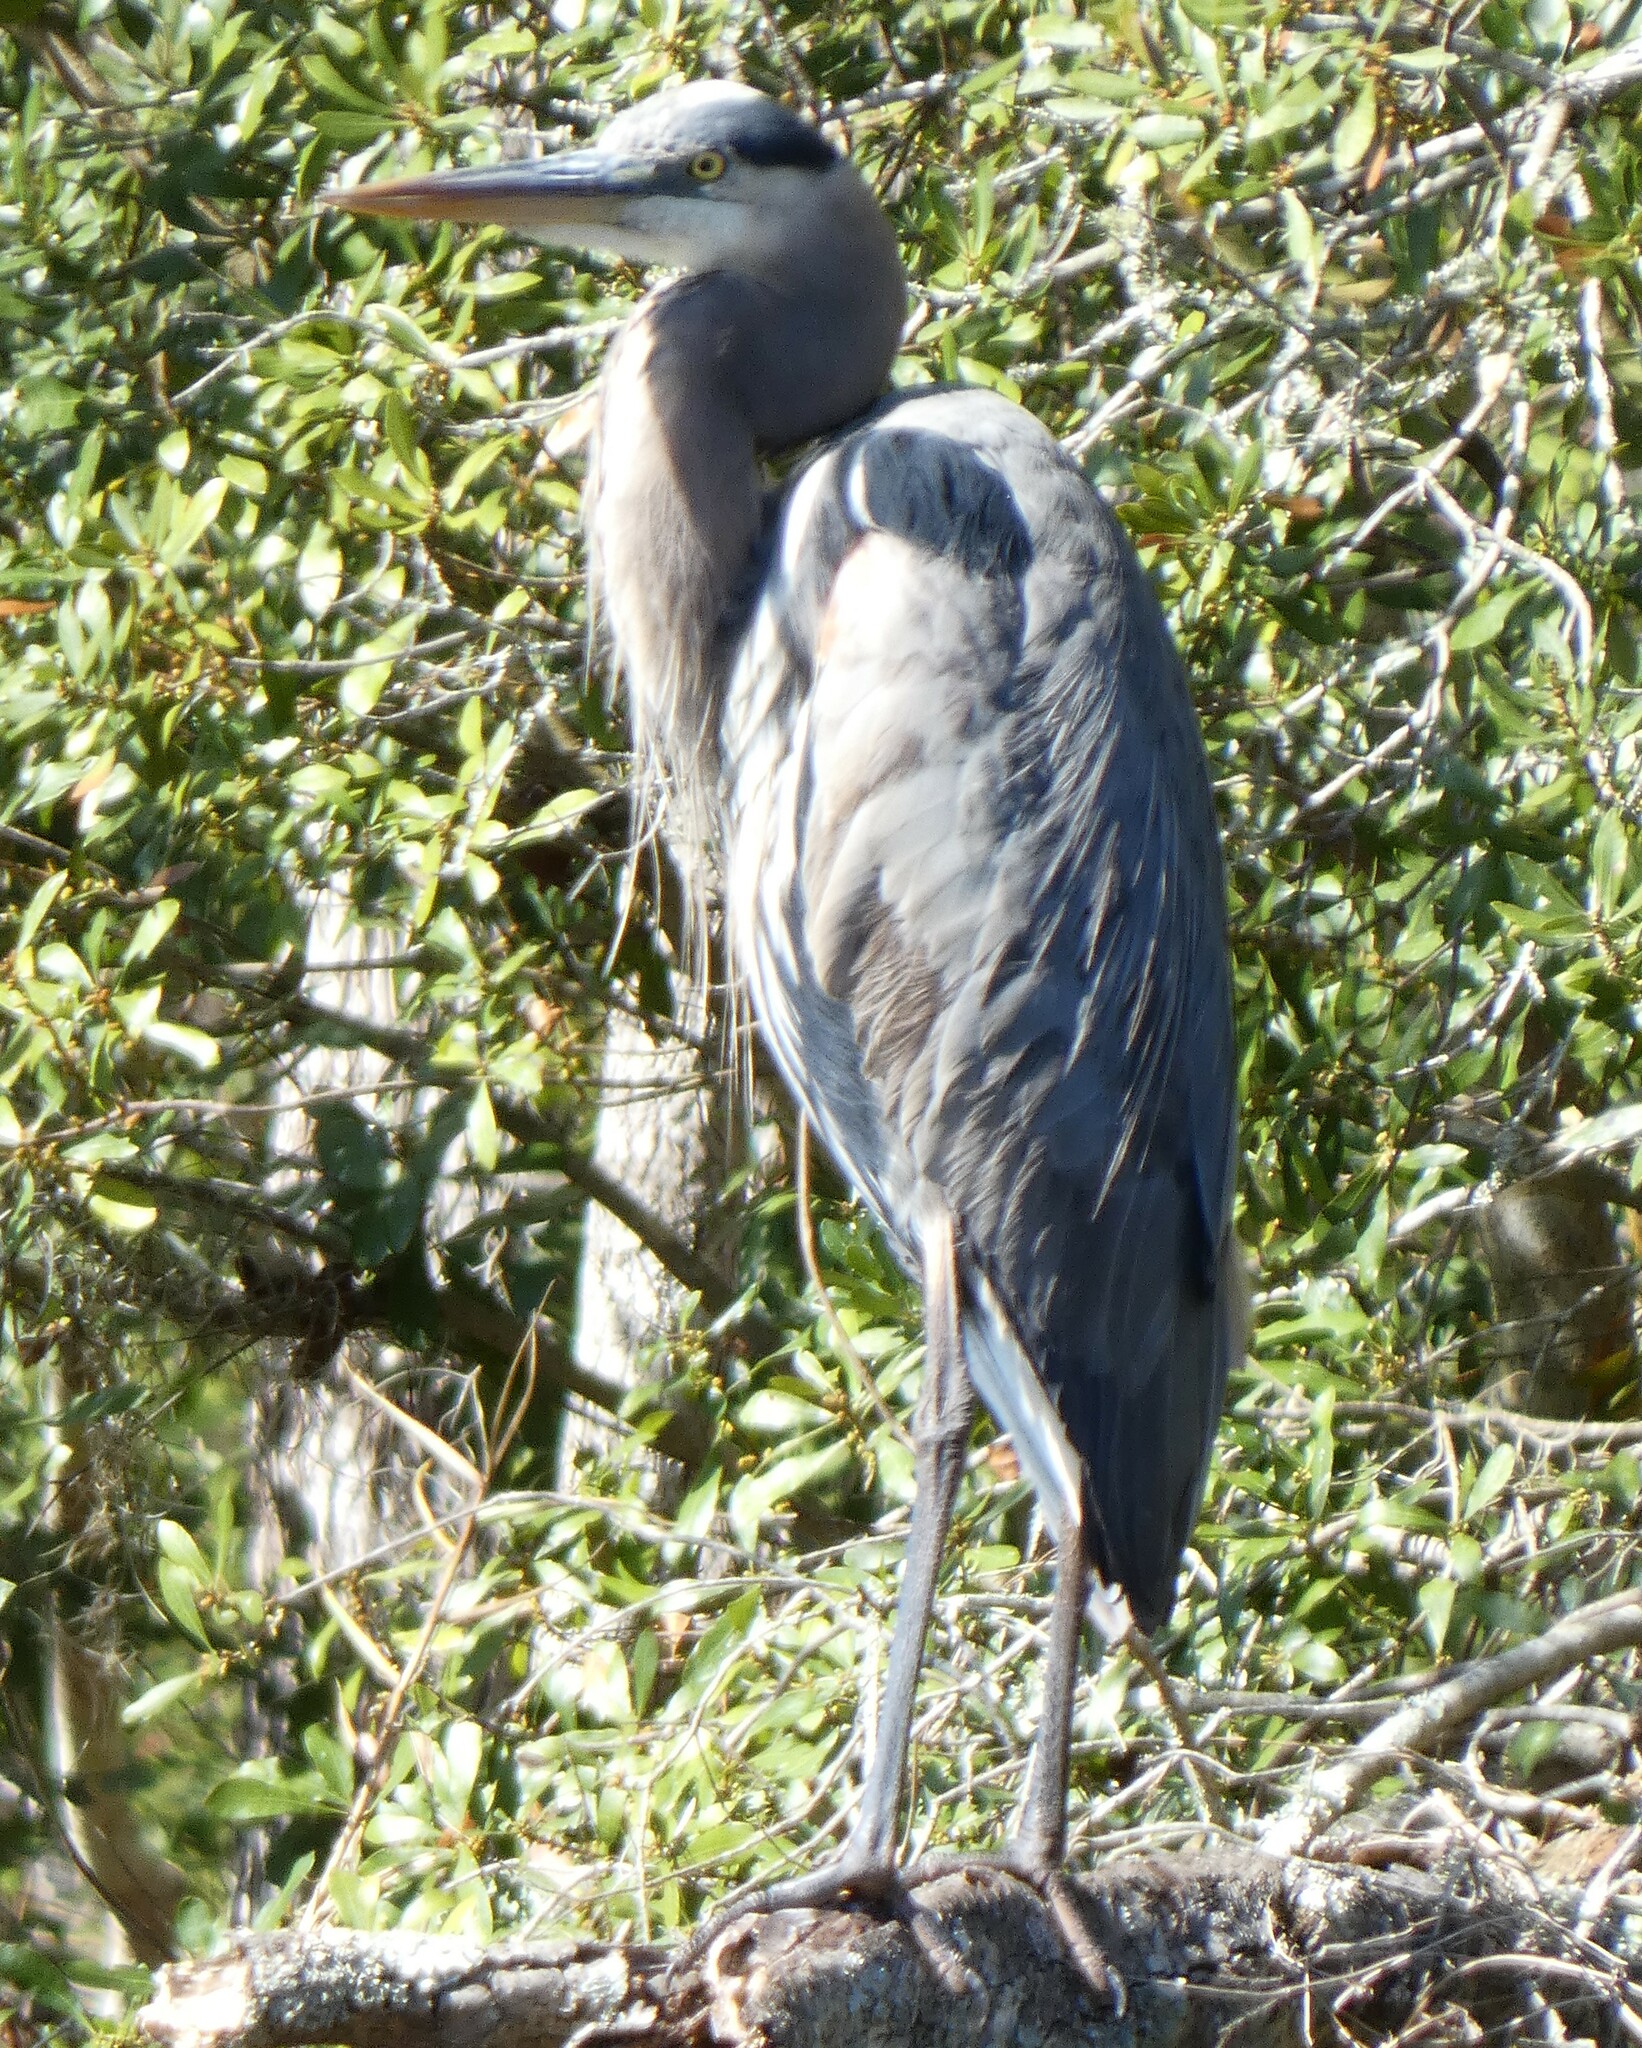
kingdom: Animalia
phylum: Chordata
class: Aves
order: Pelecaniformes
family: Ardeidae
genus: Ardea
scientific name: Ardea herodias
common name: Great blue heron
